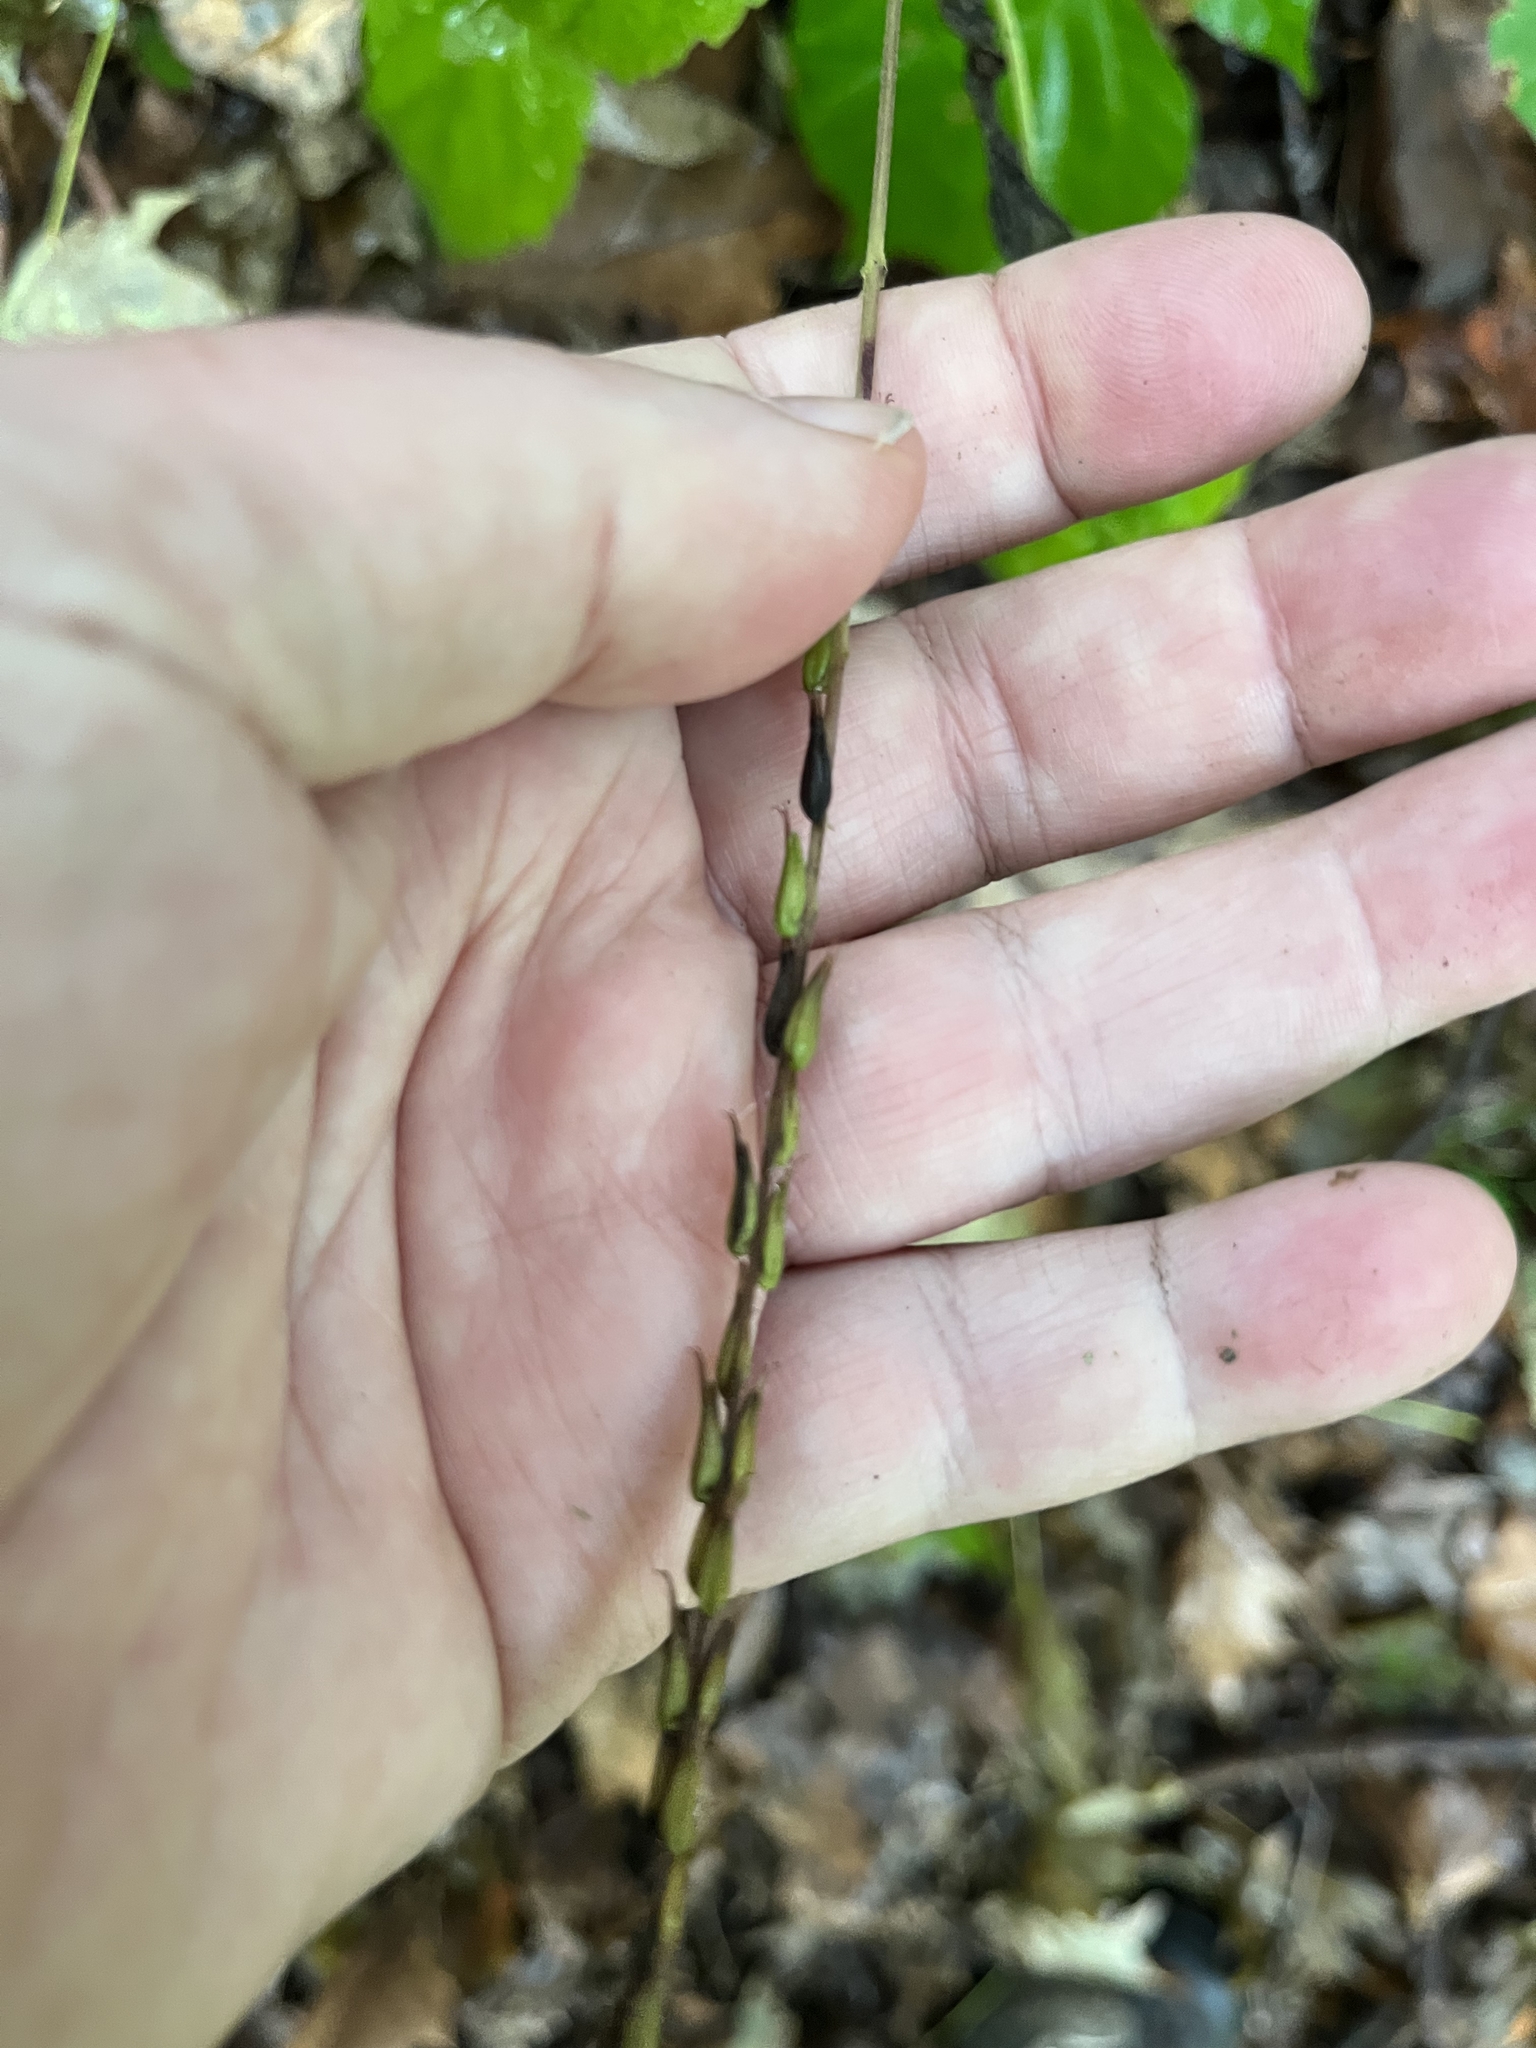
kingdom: Plantae
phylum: Tracheophyta
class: Magnoliopsida
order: Lamiales
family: Phrymaceae
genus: Phryma
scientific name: Phryma leptostachya
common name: American lopseed
